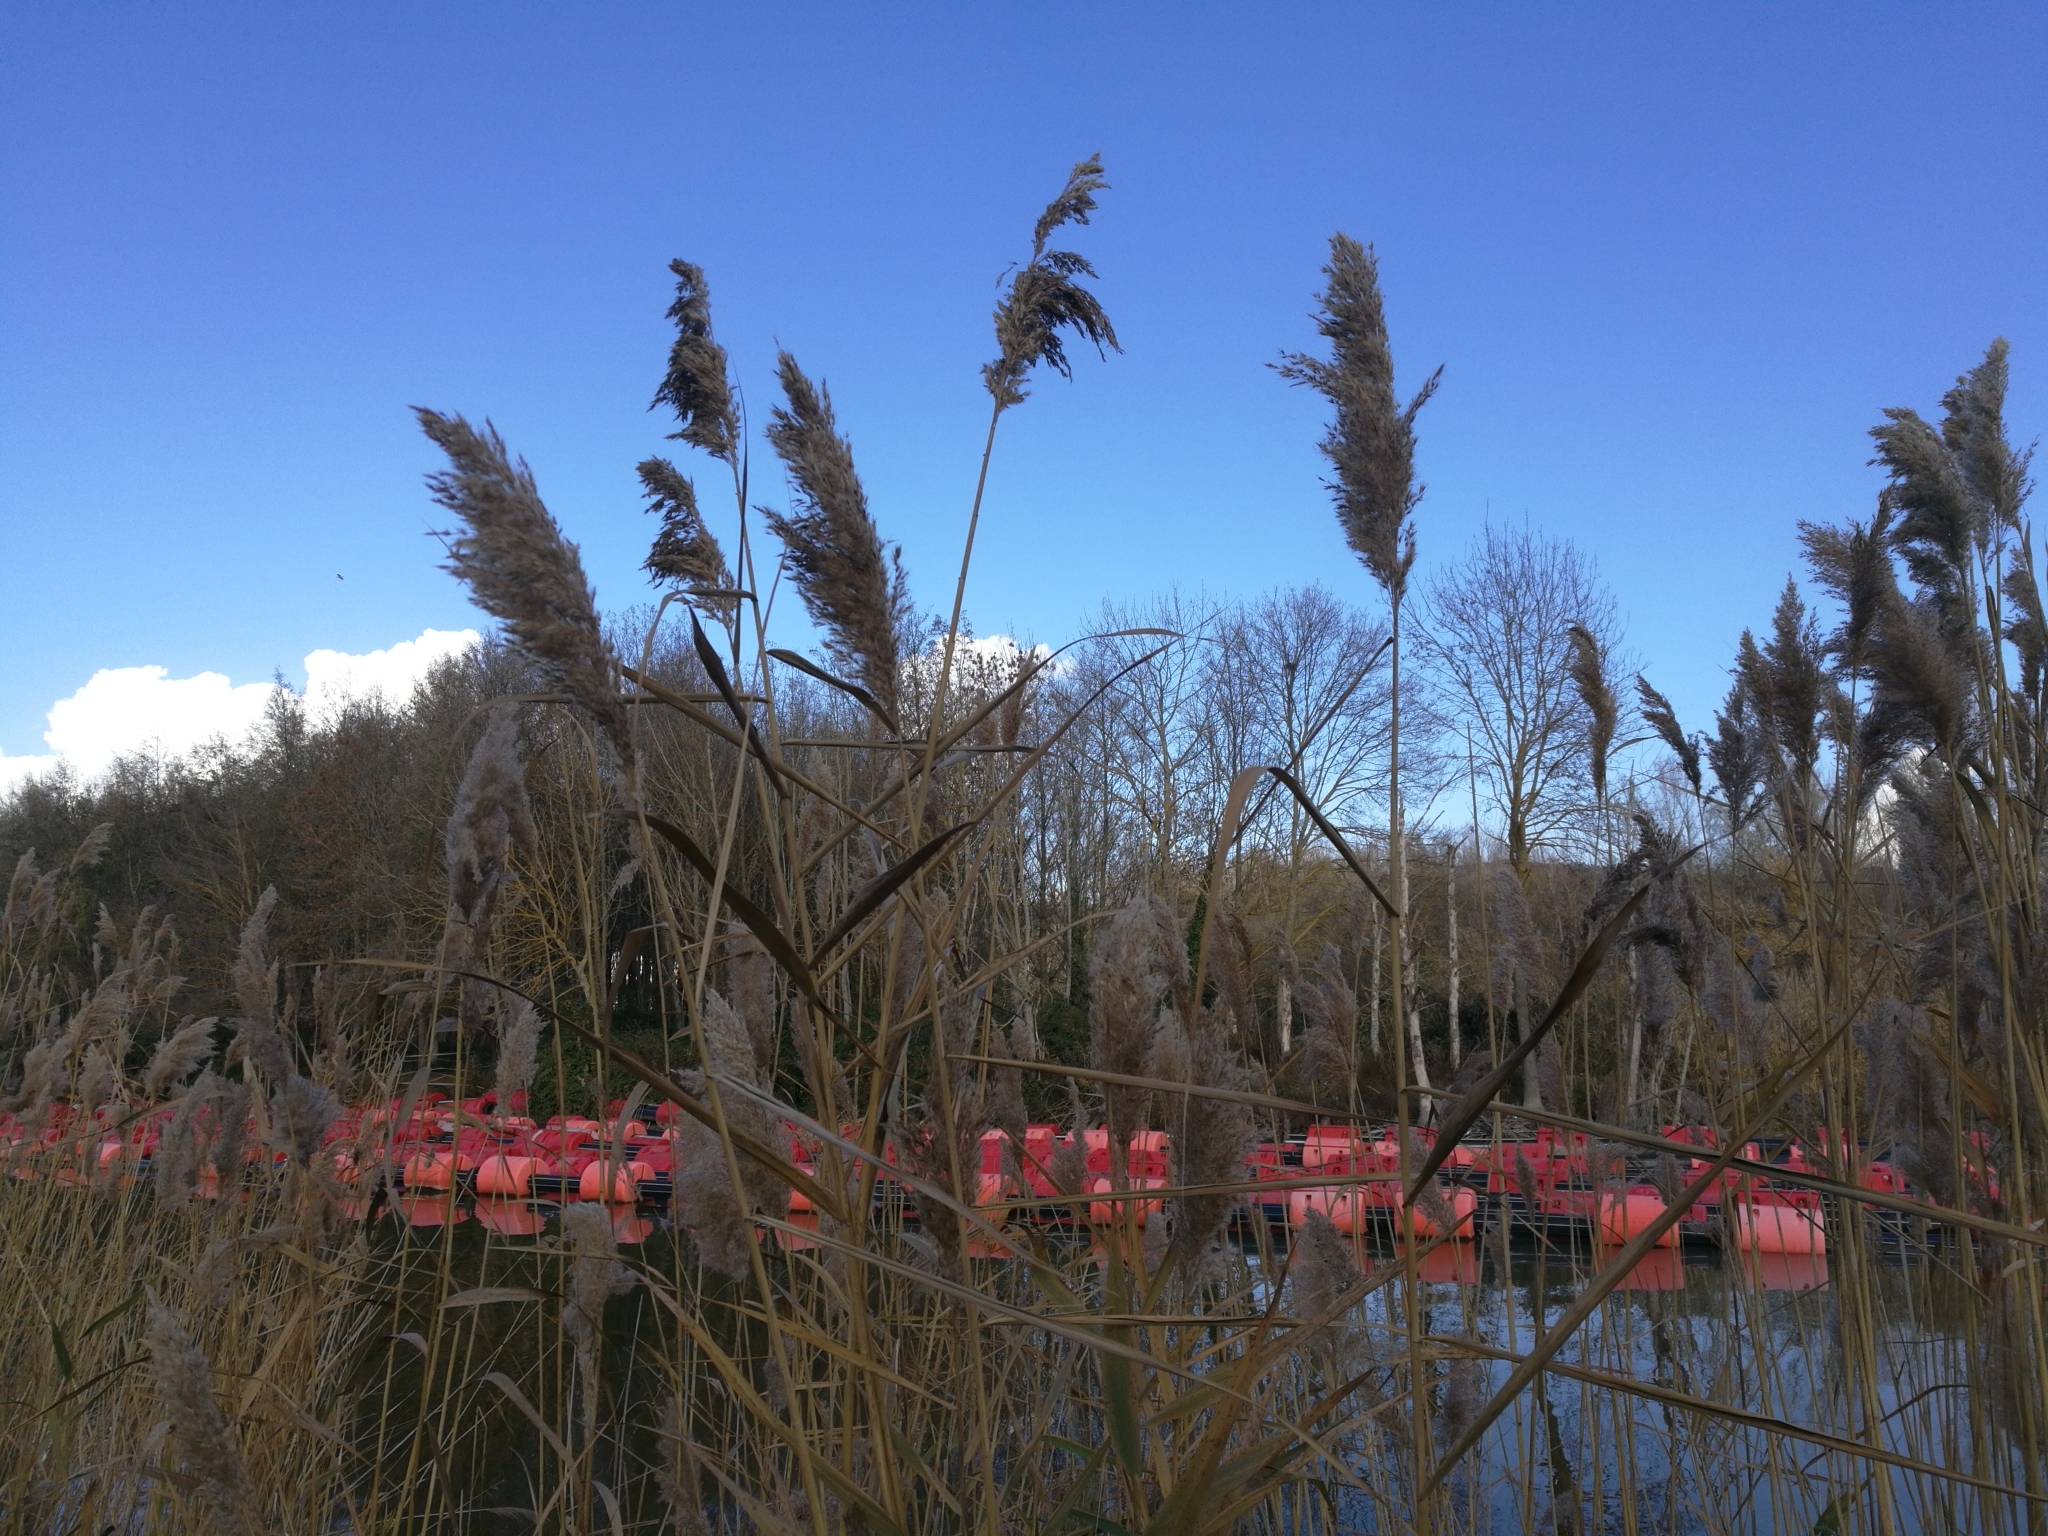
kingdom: Plantae
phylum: Tracheophyta
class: Liliopsida
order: Poales
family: Poaceae
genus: Phragmites
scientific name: Phragmites australis
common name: Common reed
